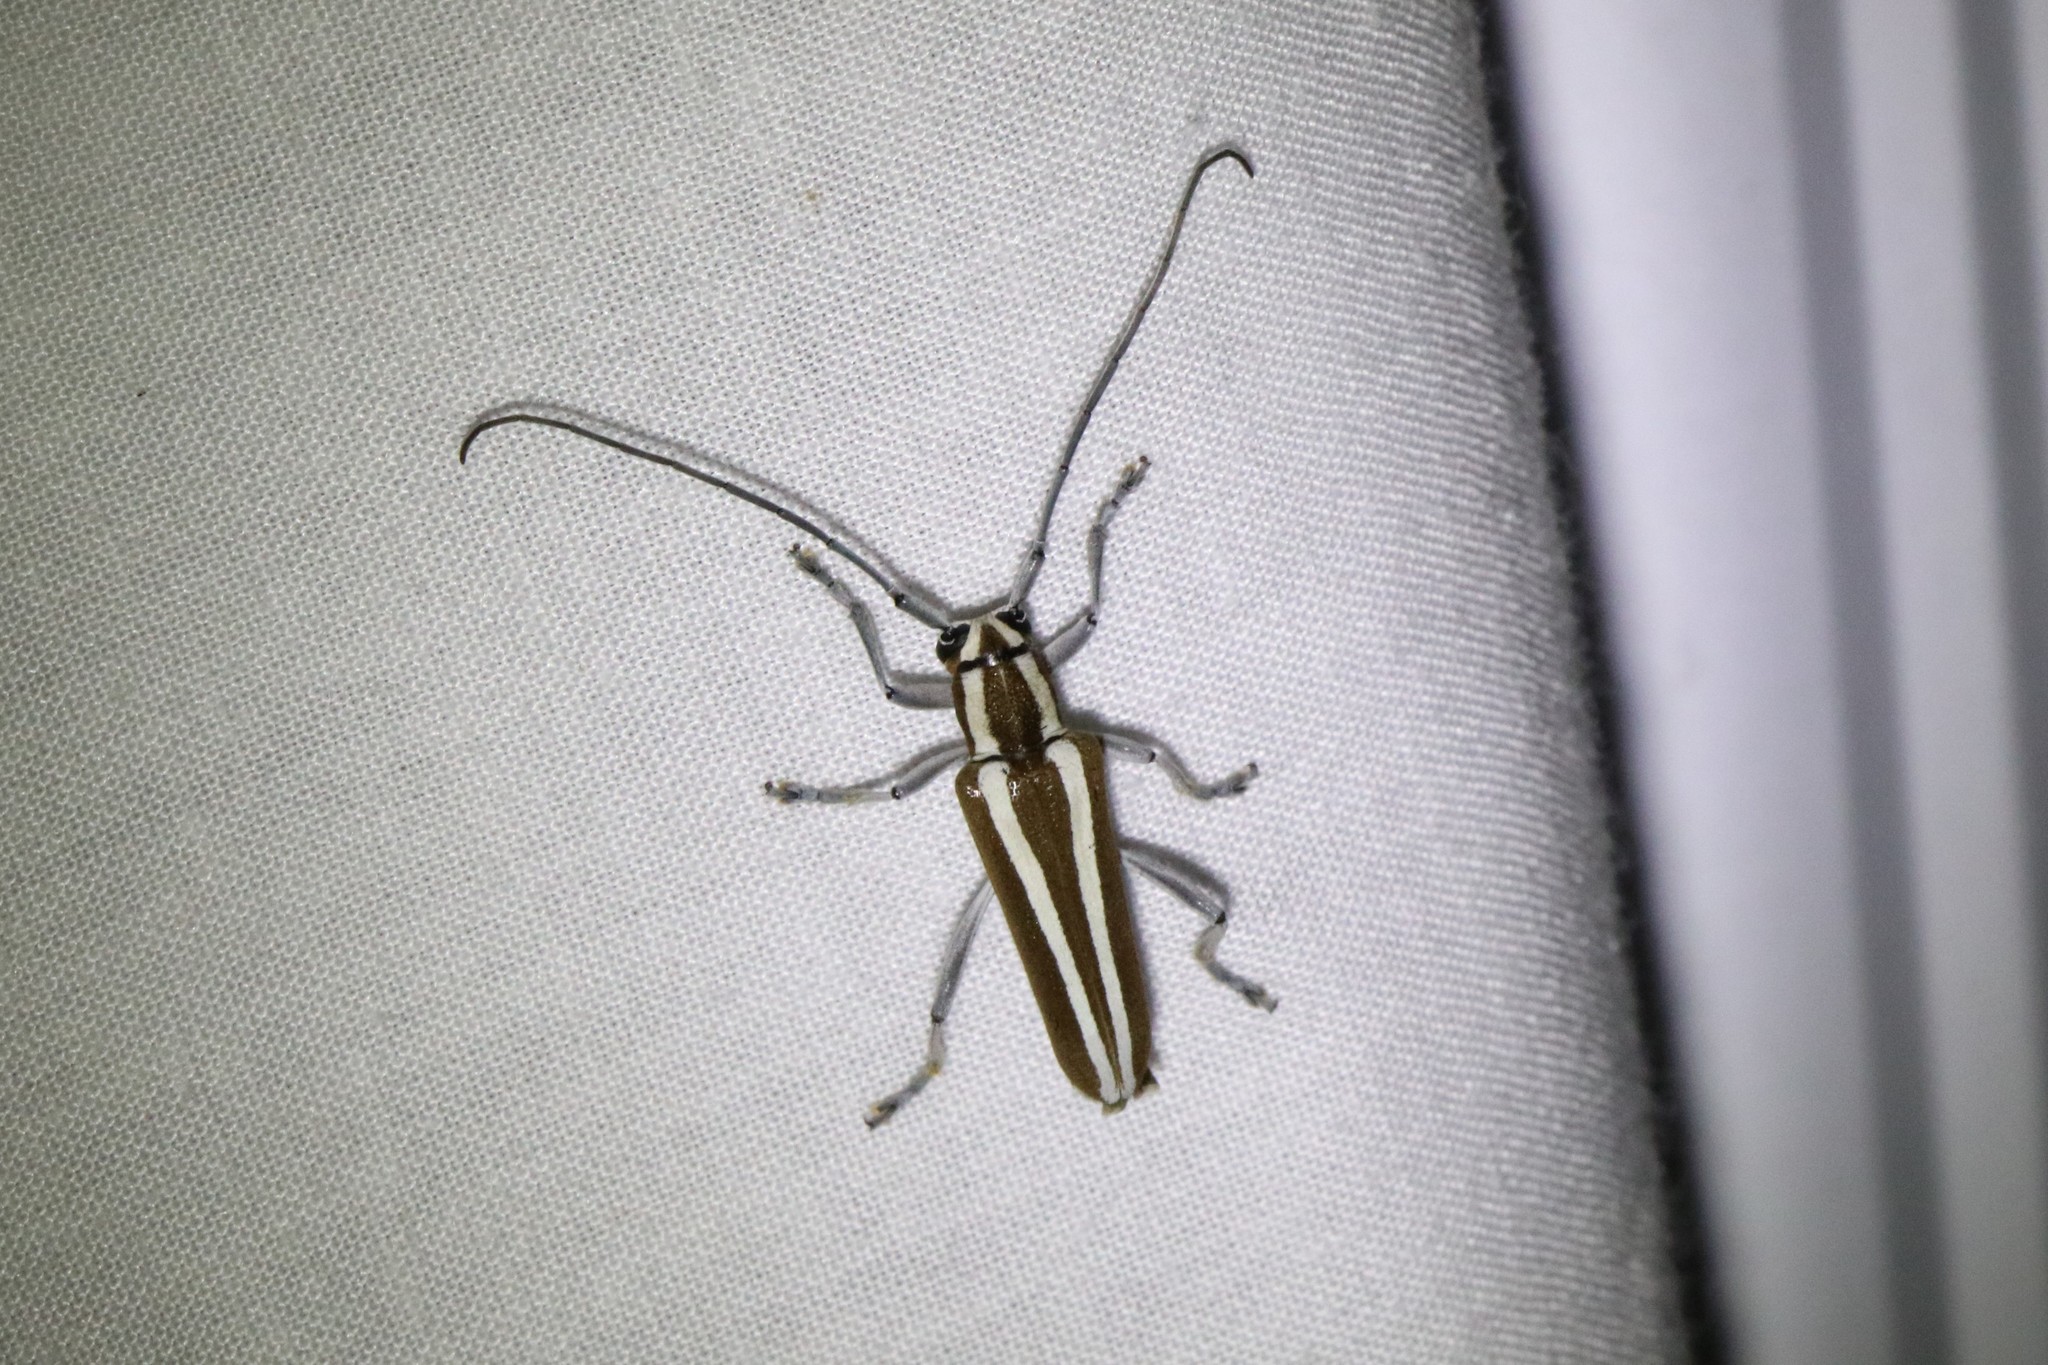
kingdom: Animalia
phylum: Arthropoda
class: Insecta
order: Coleoptera
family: Cerambycidae
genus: Saperda
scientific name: Saperda candida
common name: Round-headed borer
